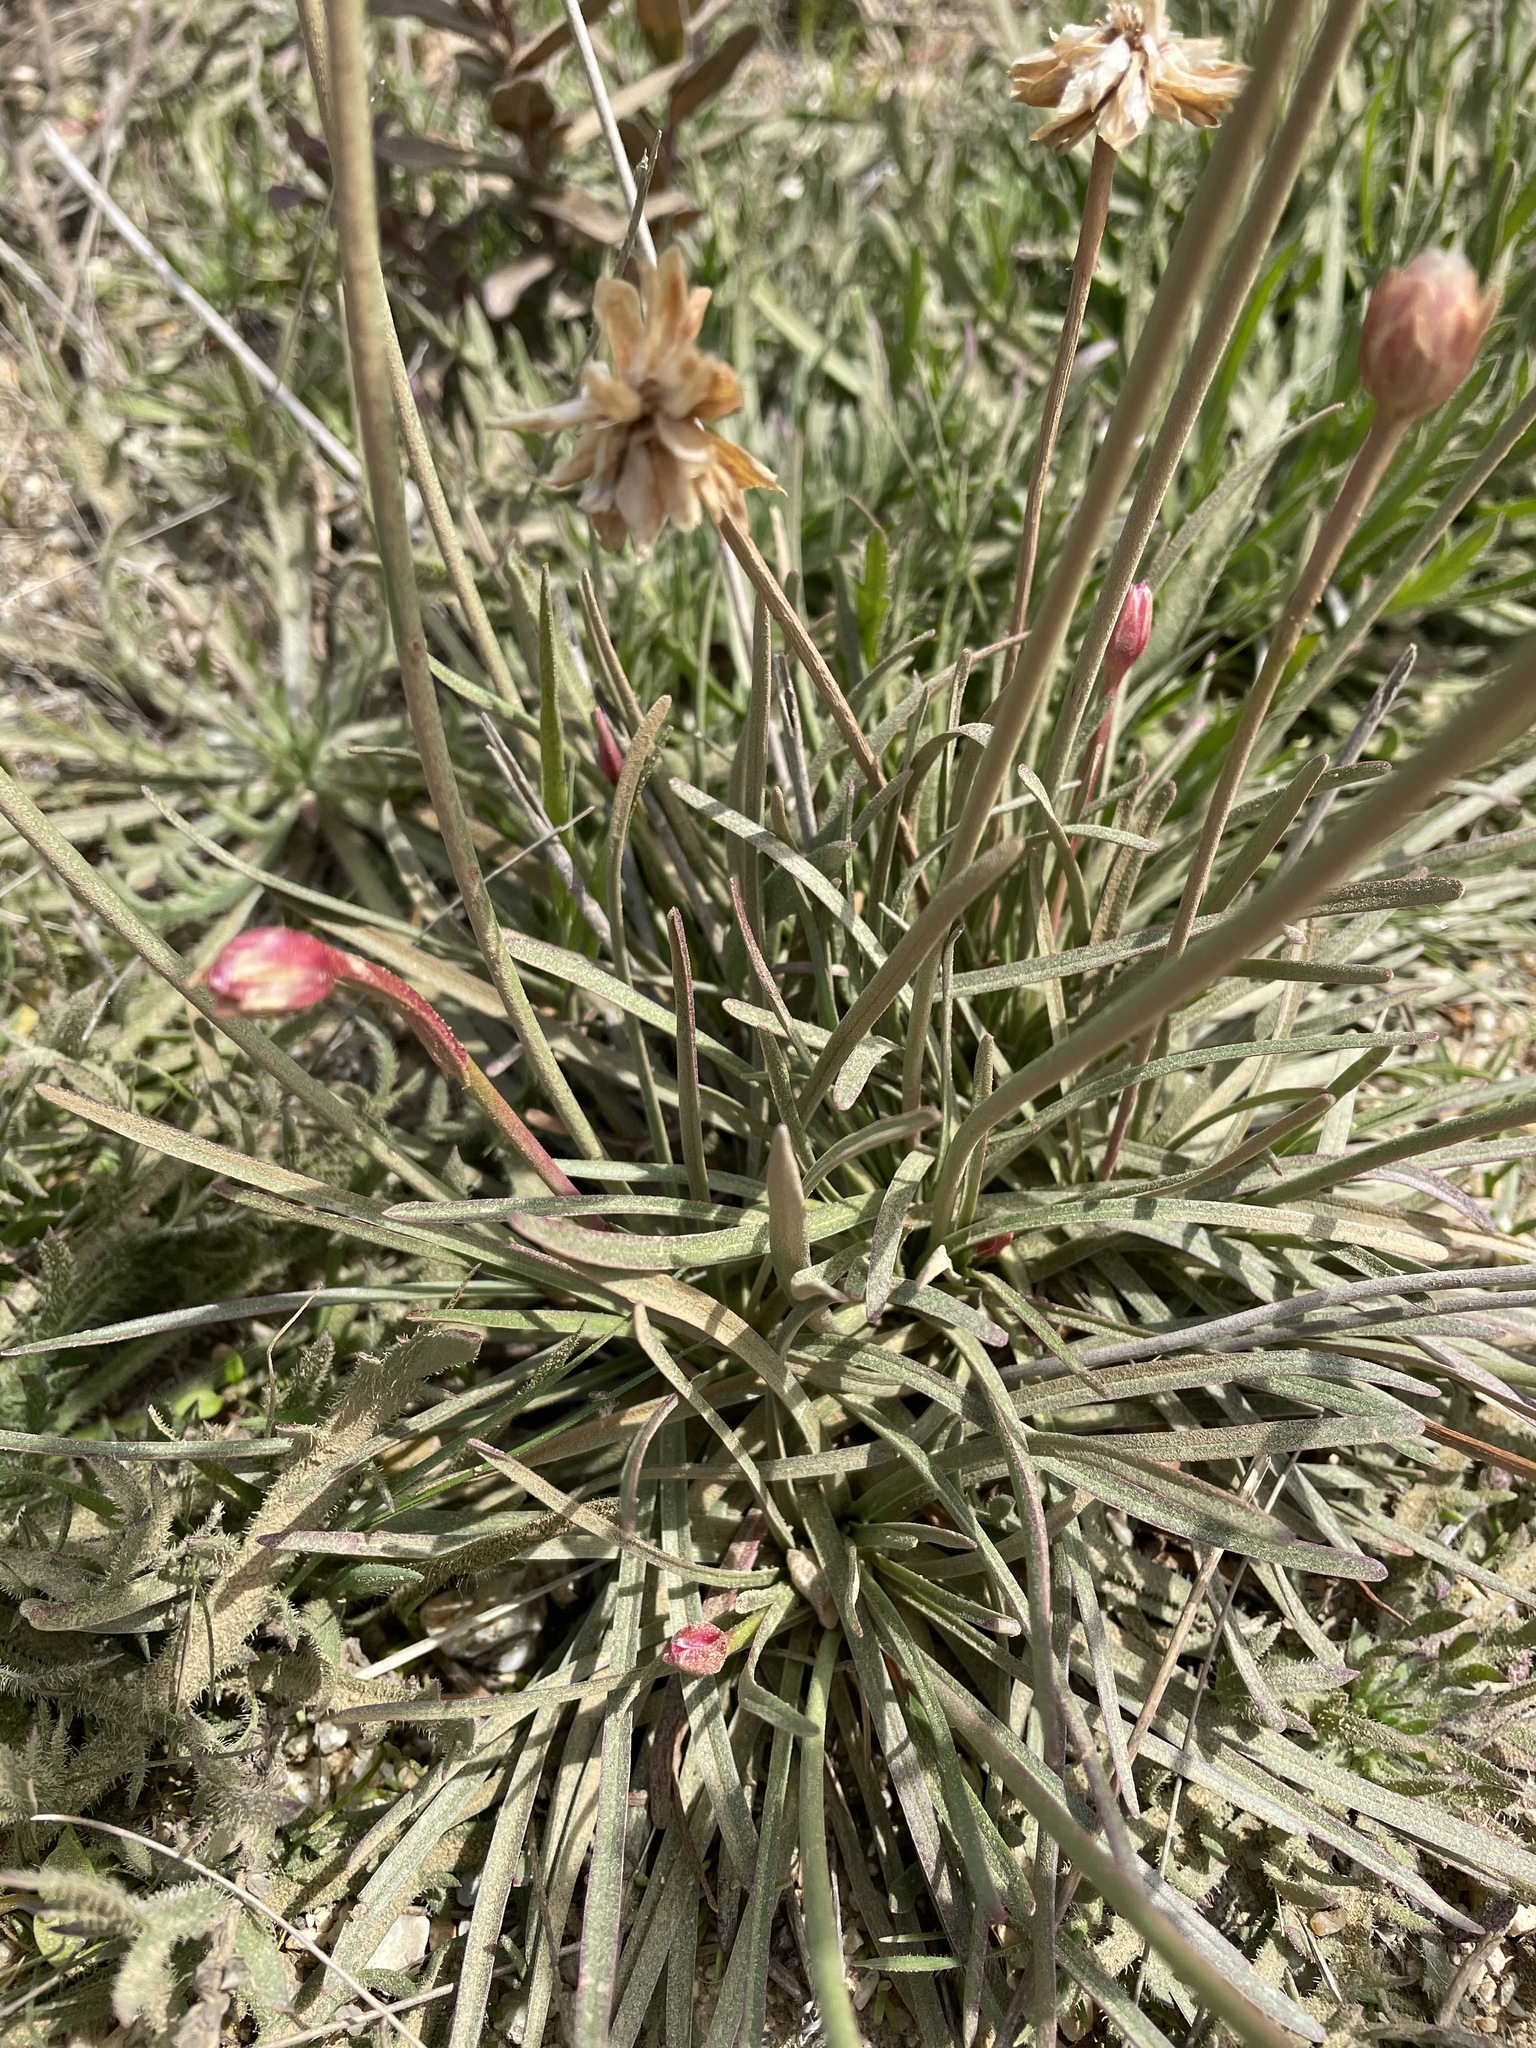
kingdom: Plantae
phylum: Tracheophyta
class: Magnoliopsida
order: Caryophyllales
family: Plumbaginaceae
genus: Armeria
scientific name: Armeria maritima
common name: Thrift
